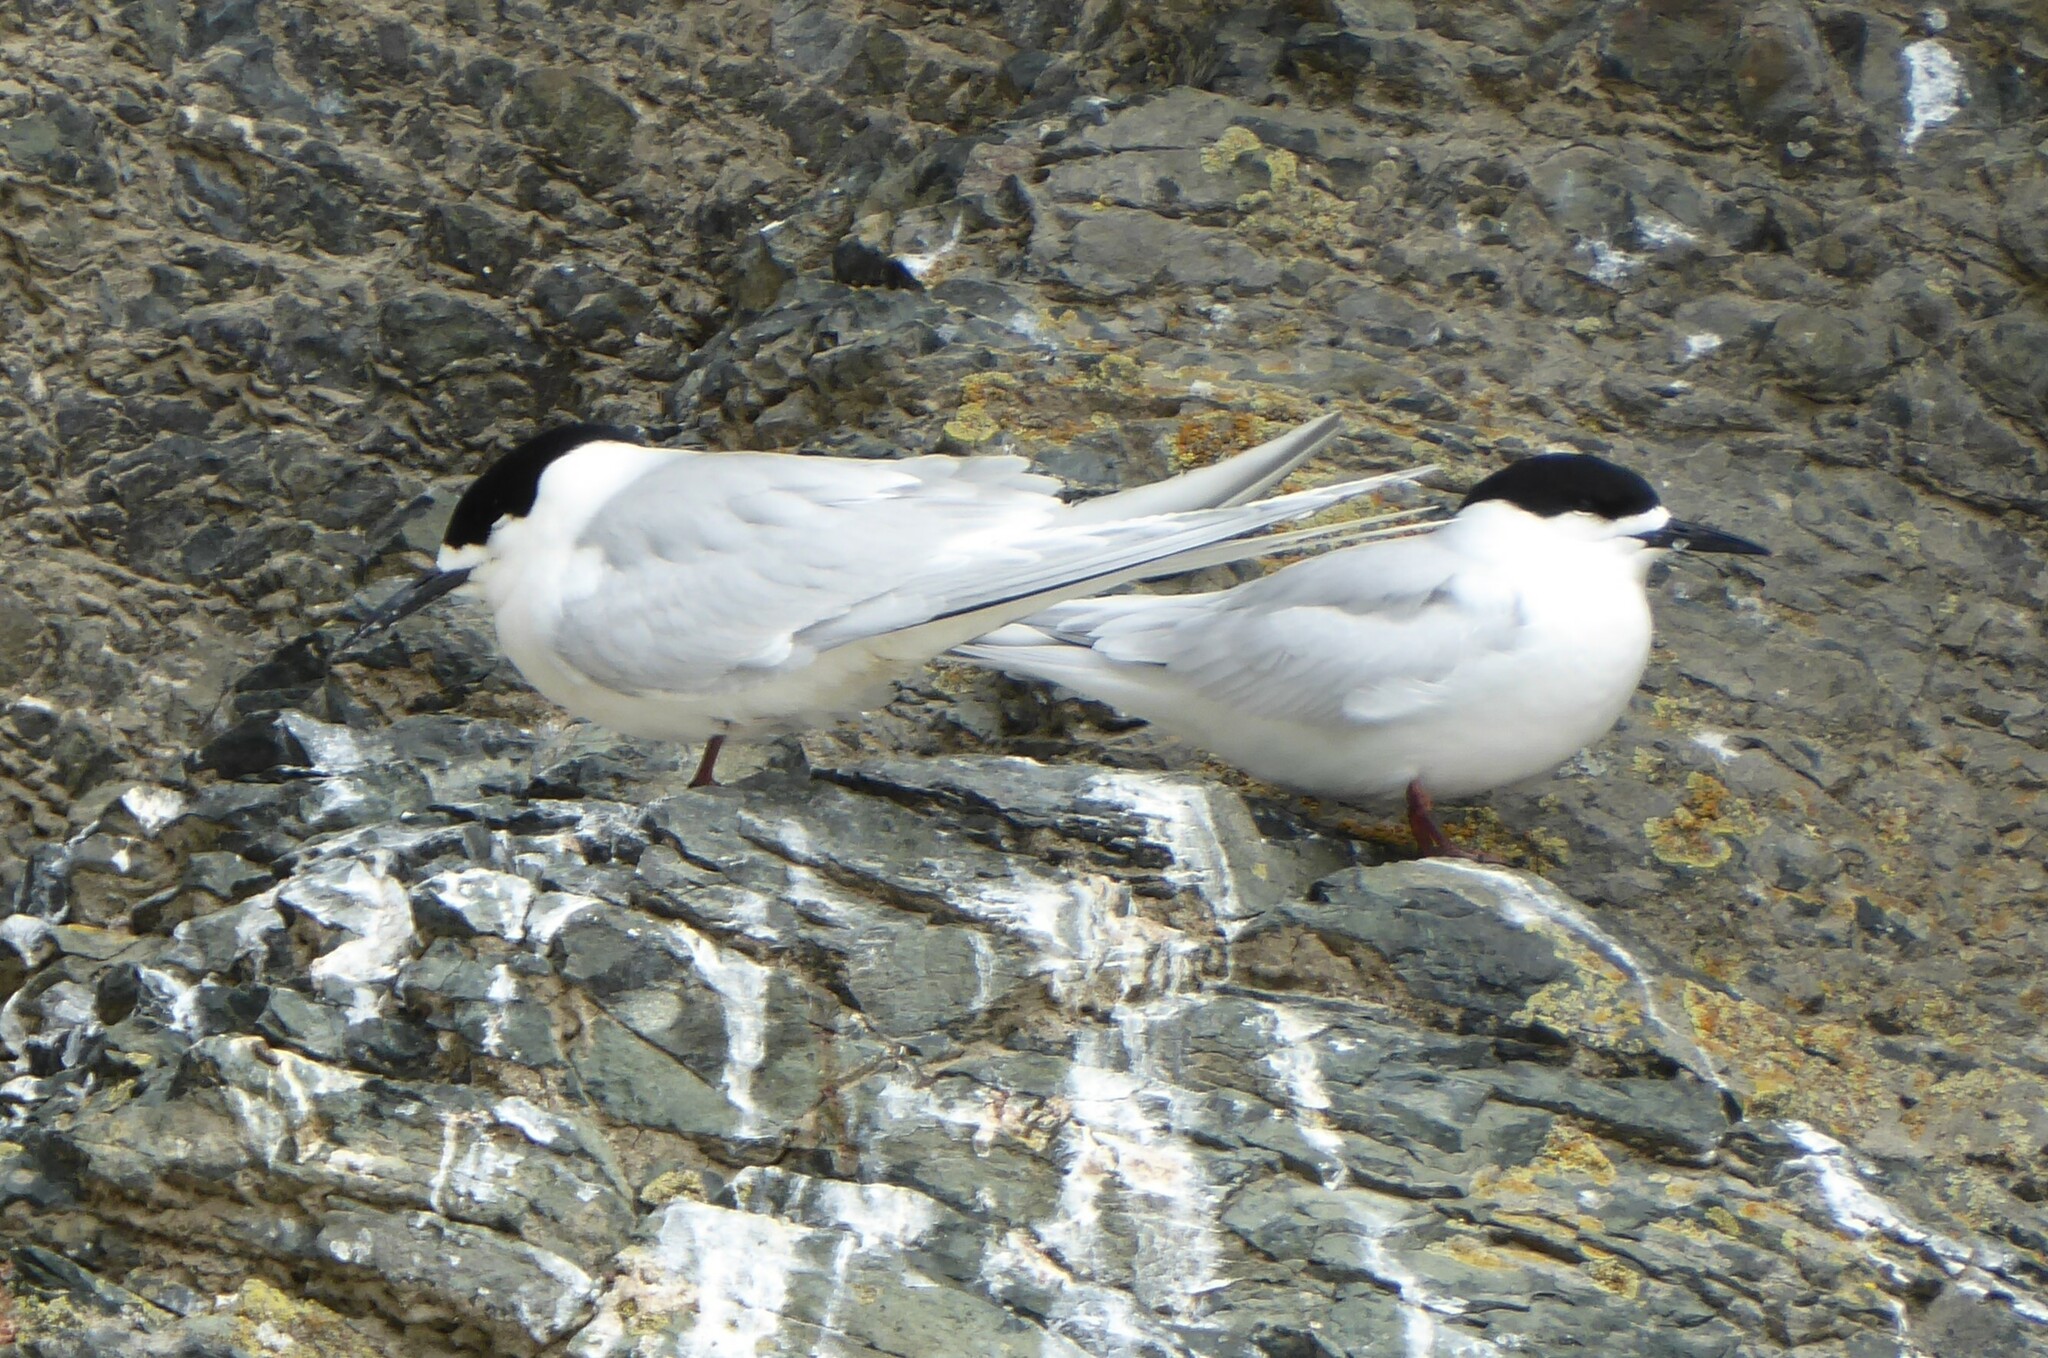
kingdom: Animalia
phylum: Chordata
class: Aves
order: Charadriiformes
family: Laridae
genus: Sterna
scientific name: Sterna striata
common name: White-fronted tern
